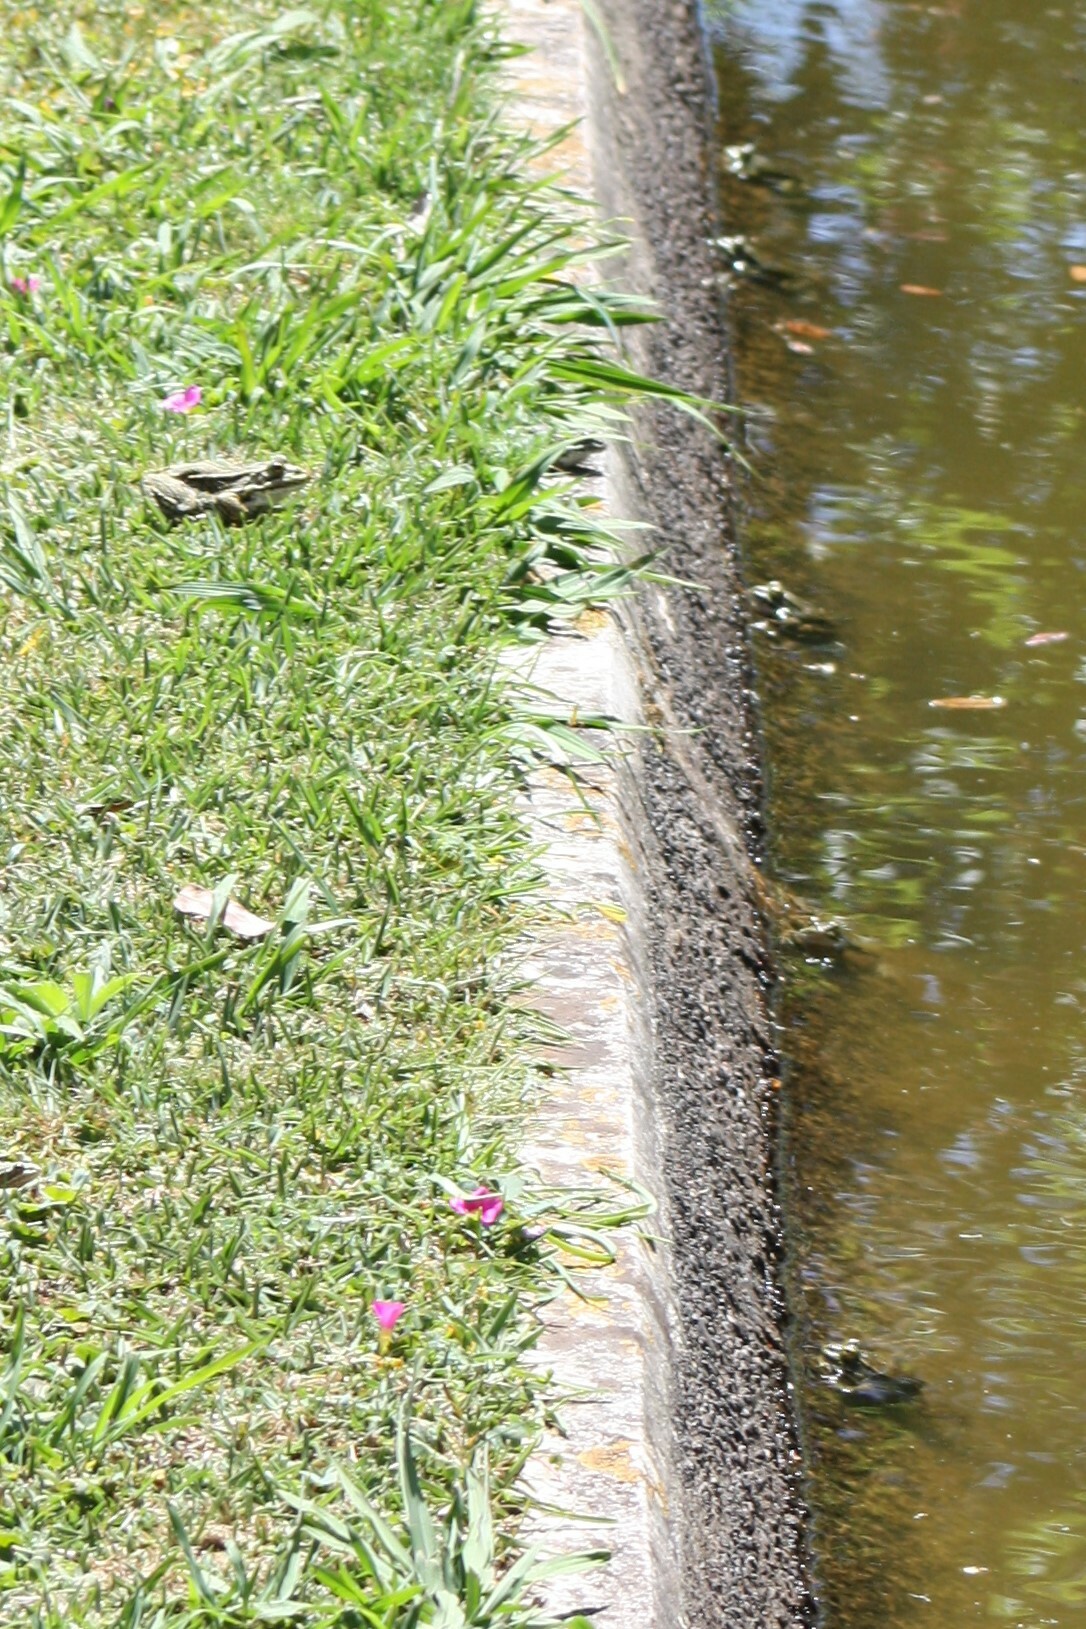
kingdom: Animalia
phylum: Chordata
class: Amphibia
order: Anura
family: Ranidae
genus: Pelophylax
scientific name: Pelophylax perezi
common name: Perez's frog
